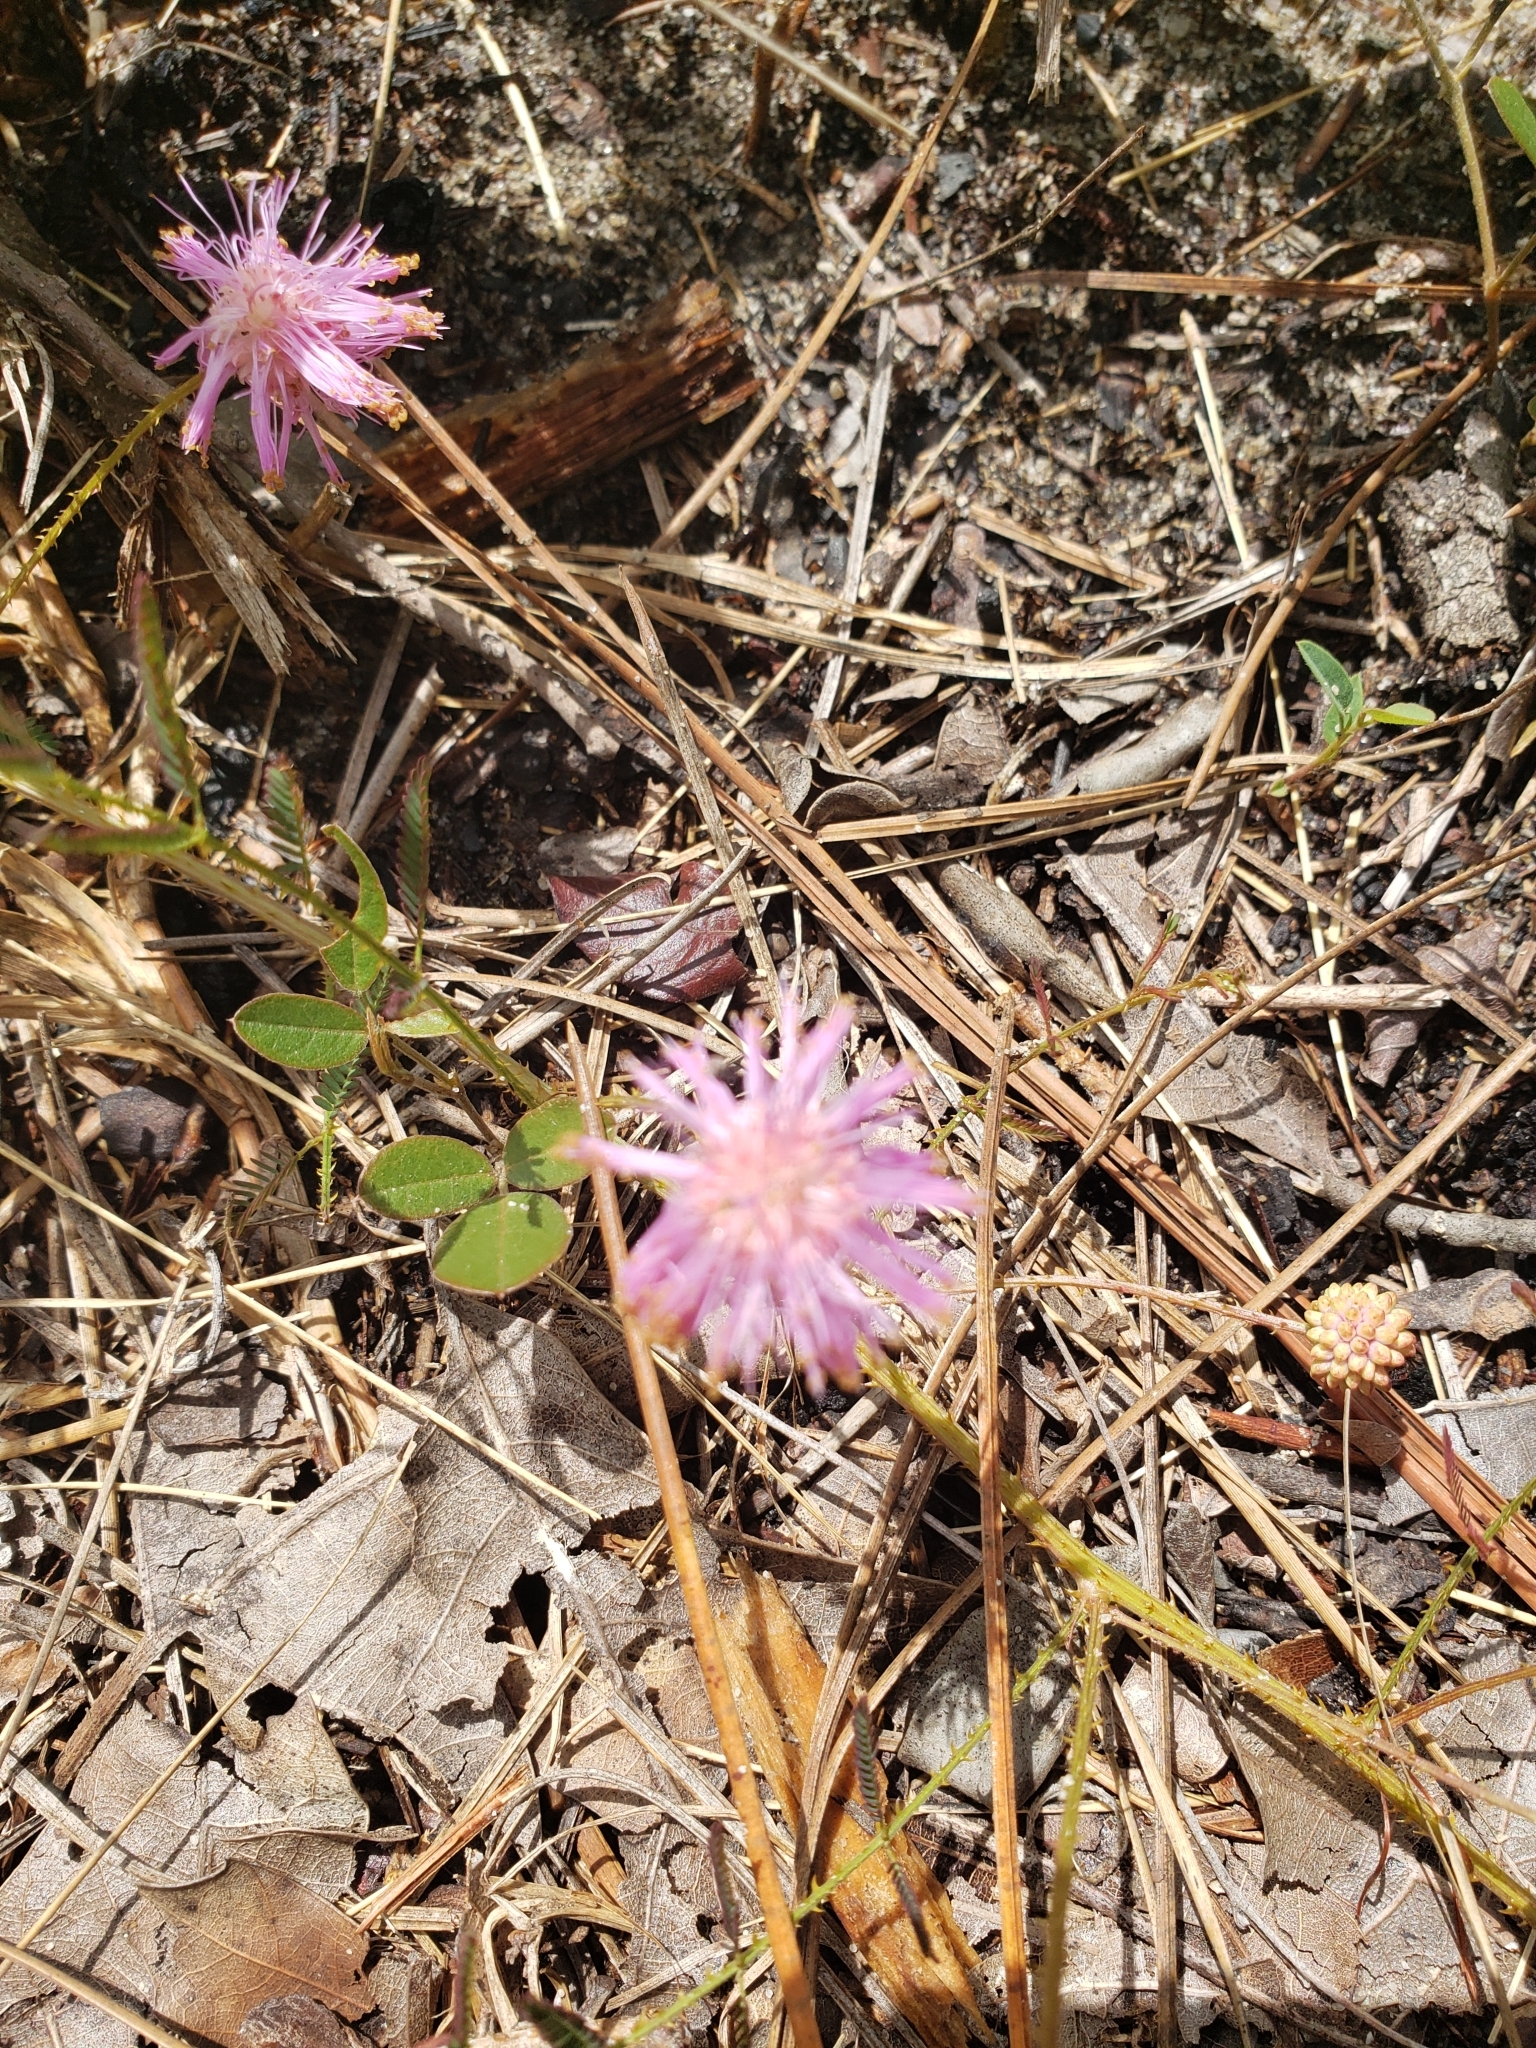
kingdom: Plantae
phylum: Tracheophyta
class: Magnoliopsida
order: Fabales
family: Fabaceae
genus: Mimosa
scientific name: Mimosa quadrivalvis
